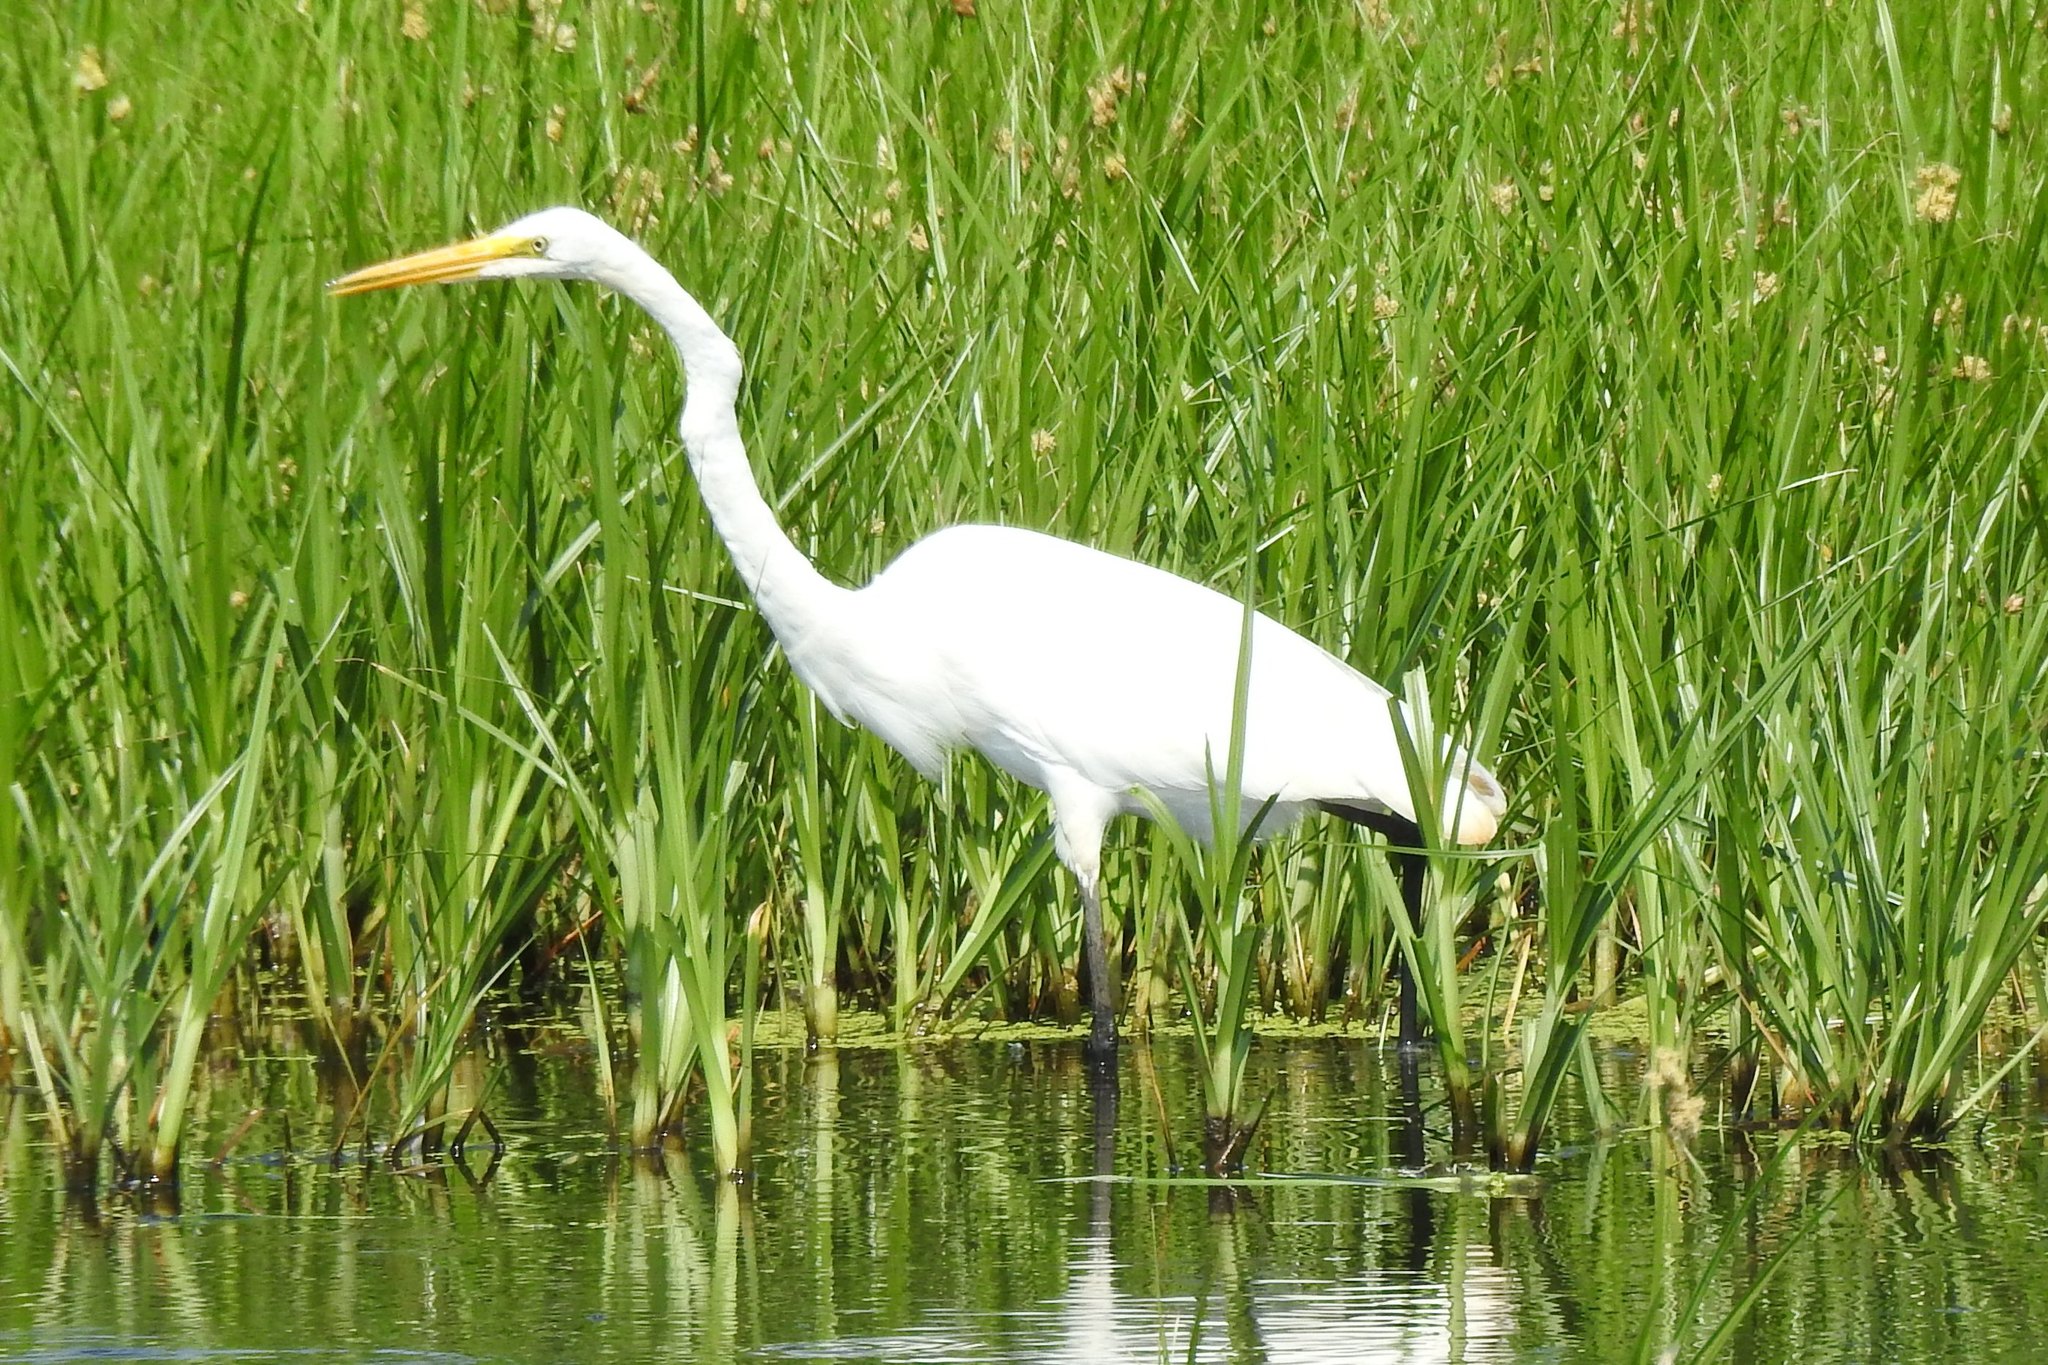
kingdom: Animalia
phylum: Chordata
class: Aves
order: Pelecaniformes
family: Ardeidae
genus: Ardea
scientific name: Ardea alba
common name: Great egret
